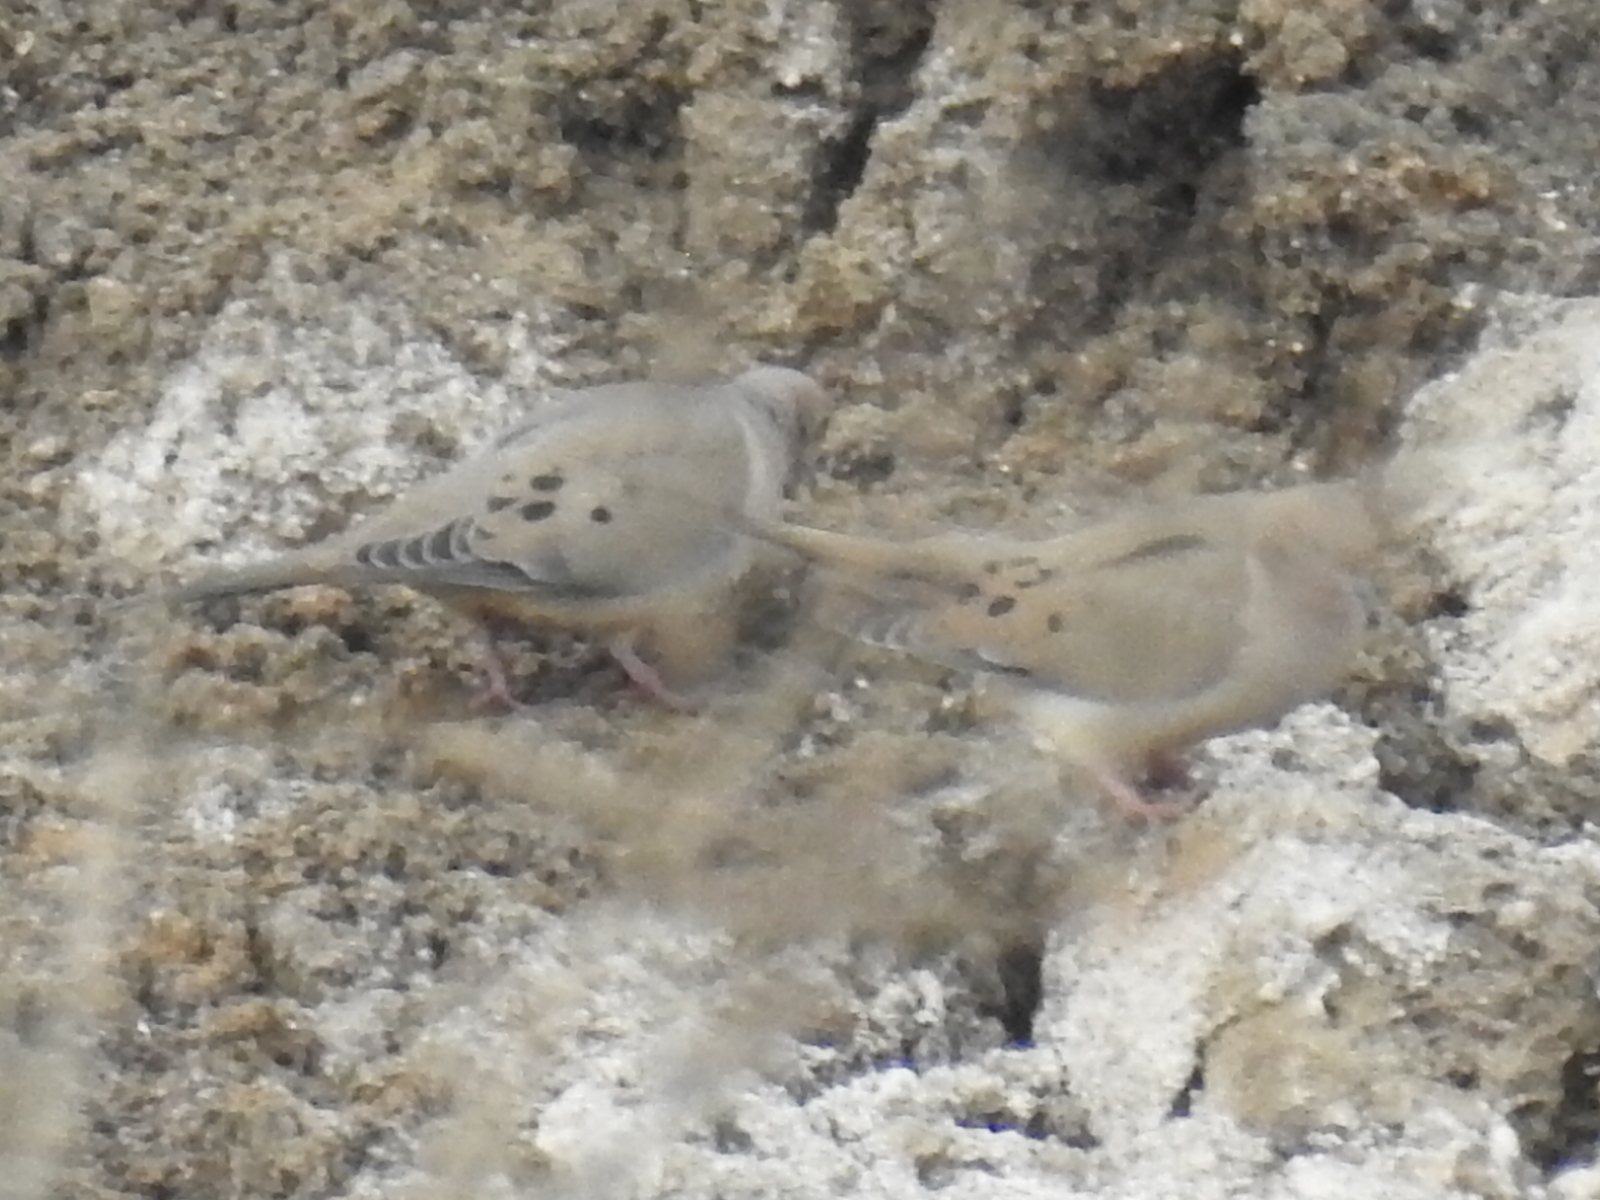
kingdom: Animalia
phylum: Chordata
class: Aves
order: Columbiformes
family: Columbidae
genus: Zenaida
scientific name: Zenaida macroura
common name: Mourning dove
